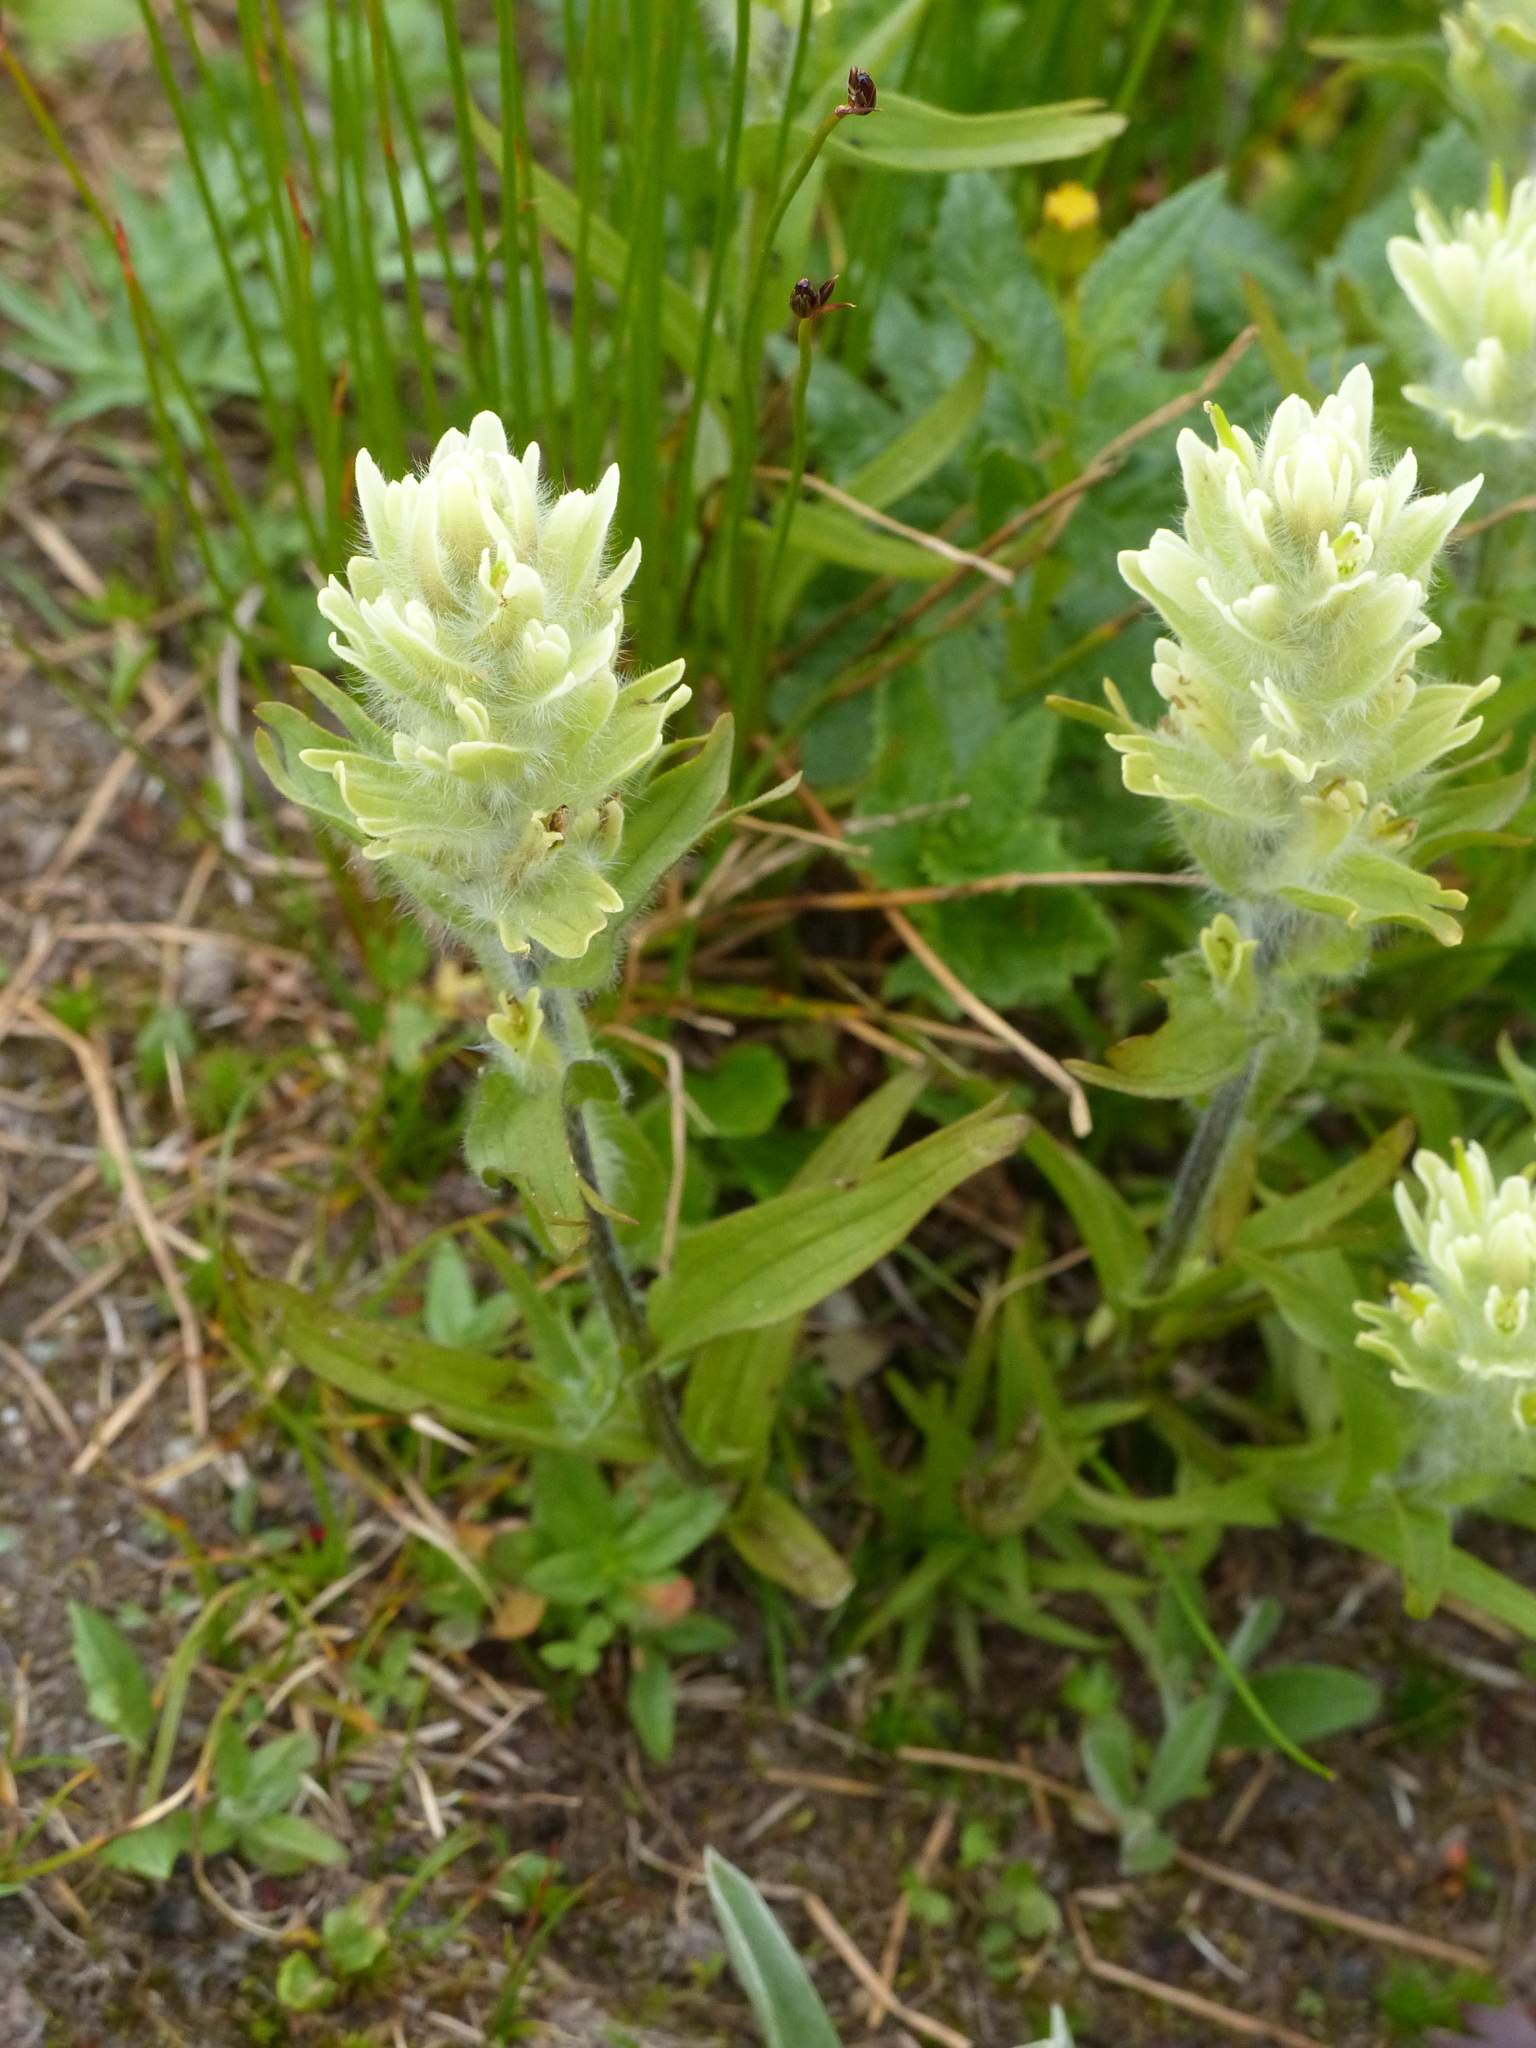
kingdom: Plantae
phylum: Tracheophyta
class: Magnoliopsida
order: Lamiales
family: Orobanchaceae
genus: Castilleja
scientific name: Castilleja occidentalis
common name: Western paintbrush
